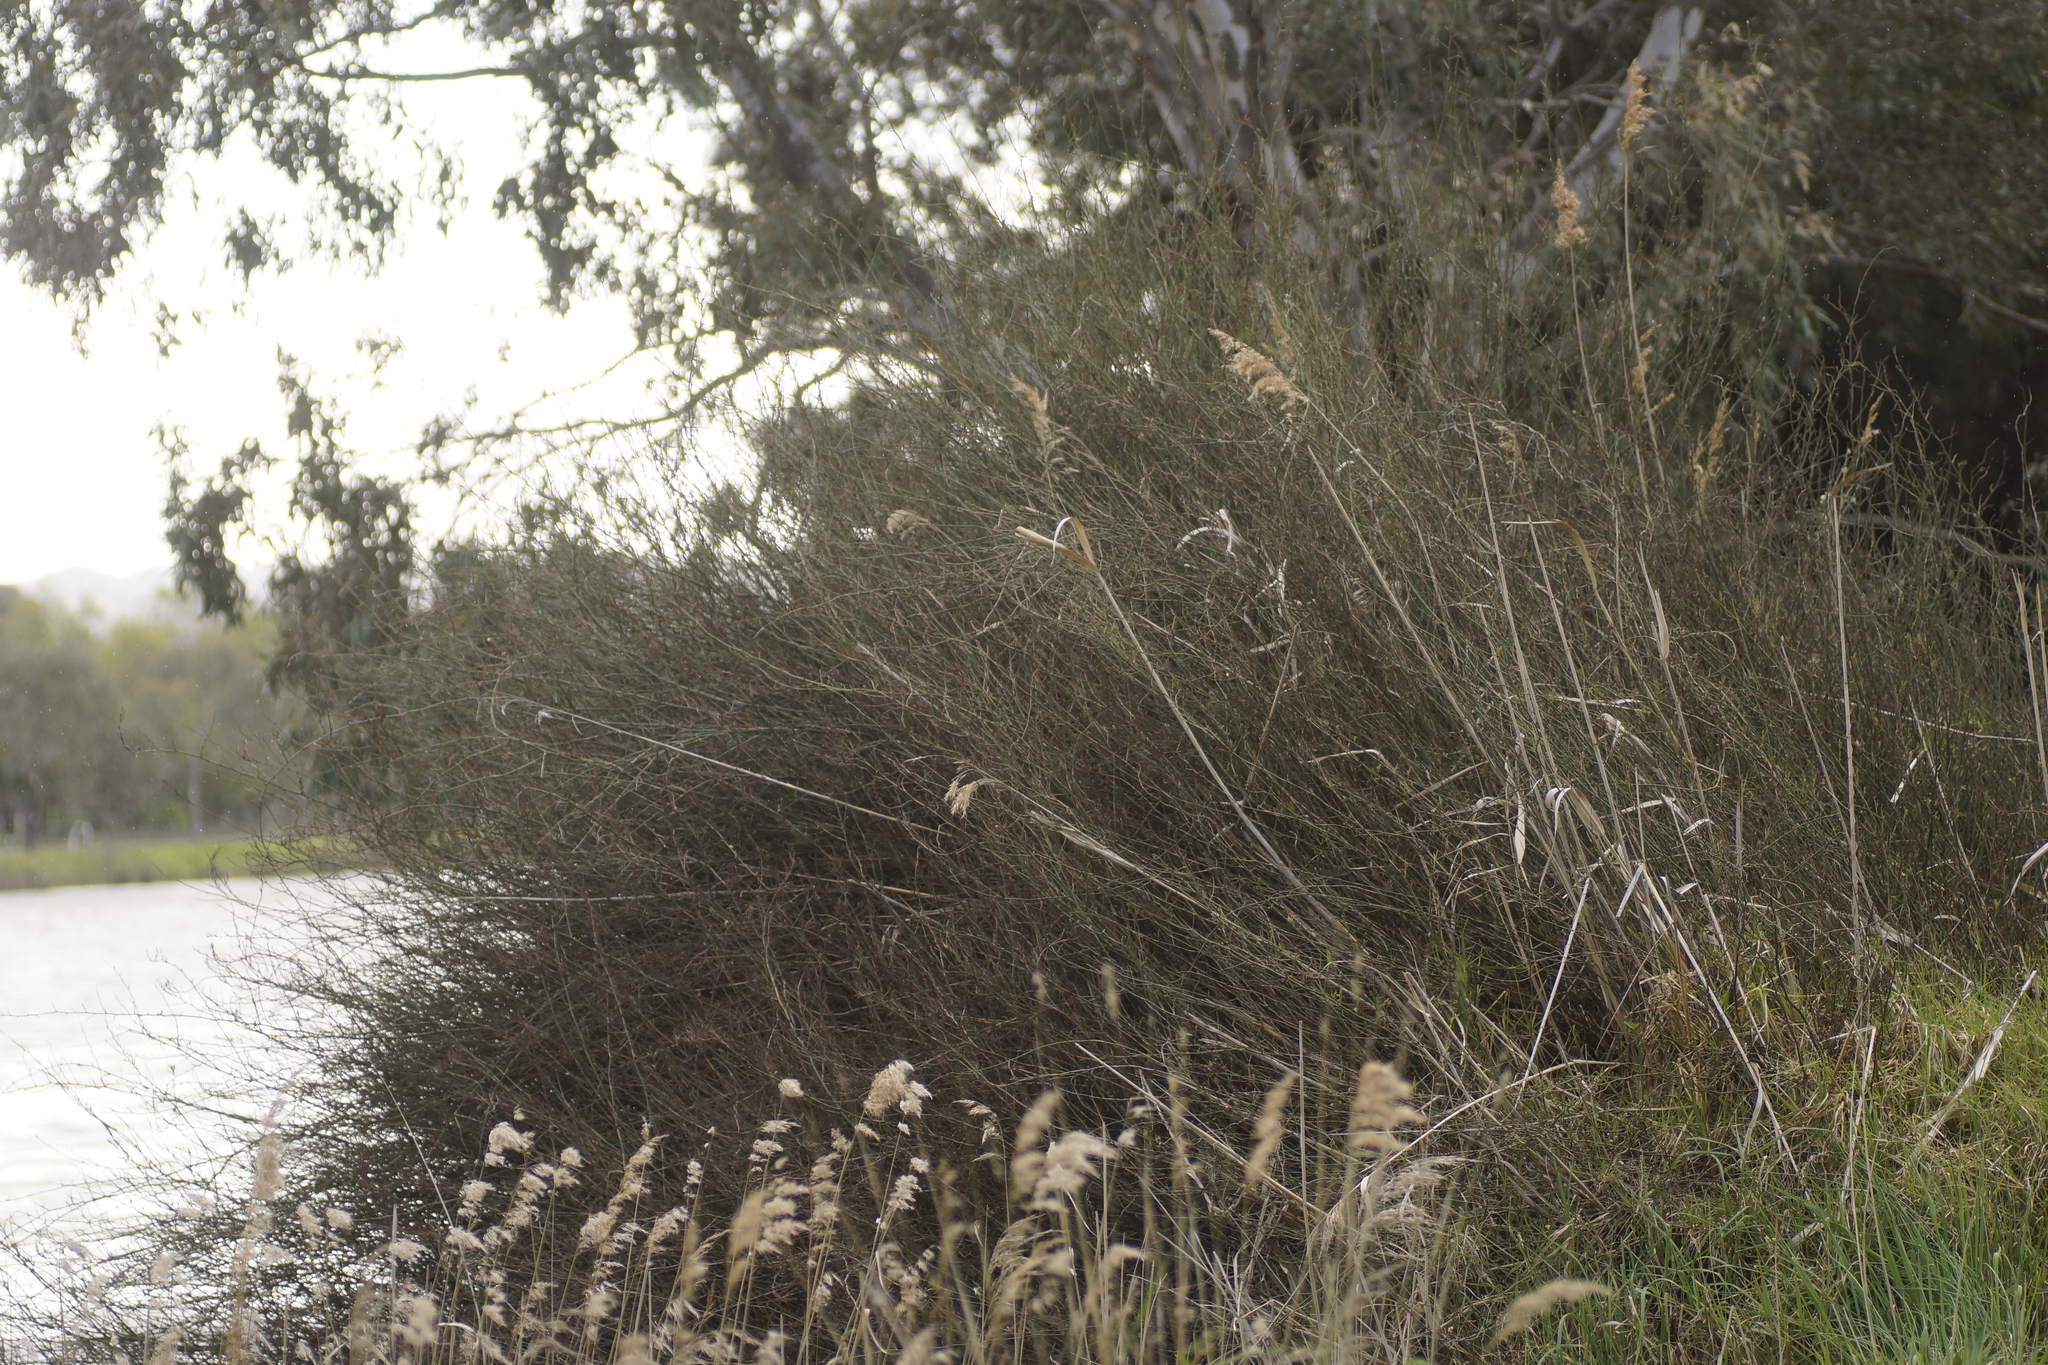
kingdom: Plantae
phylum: Tracheophyta
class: Magnoliopsida
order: Caryophyllales
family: Polygonaceae
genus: Duma
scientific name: Duma florulenta
